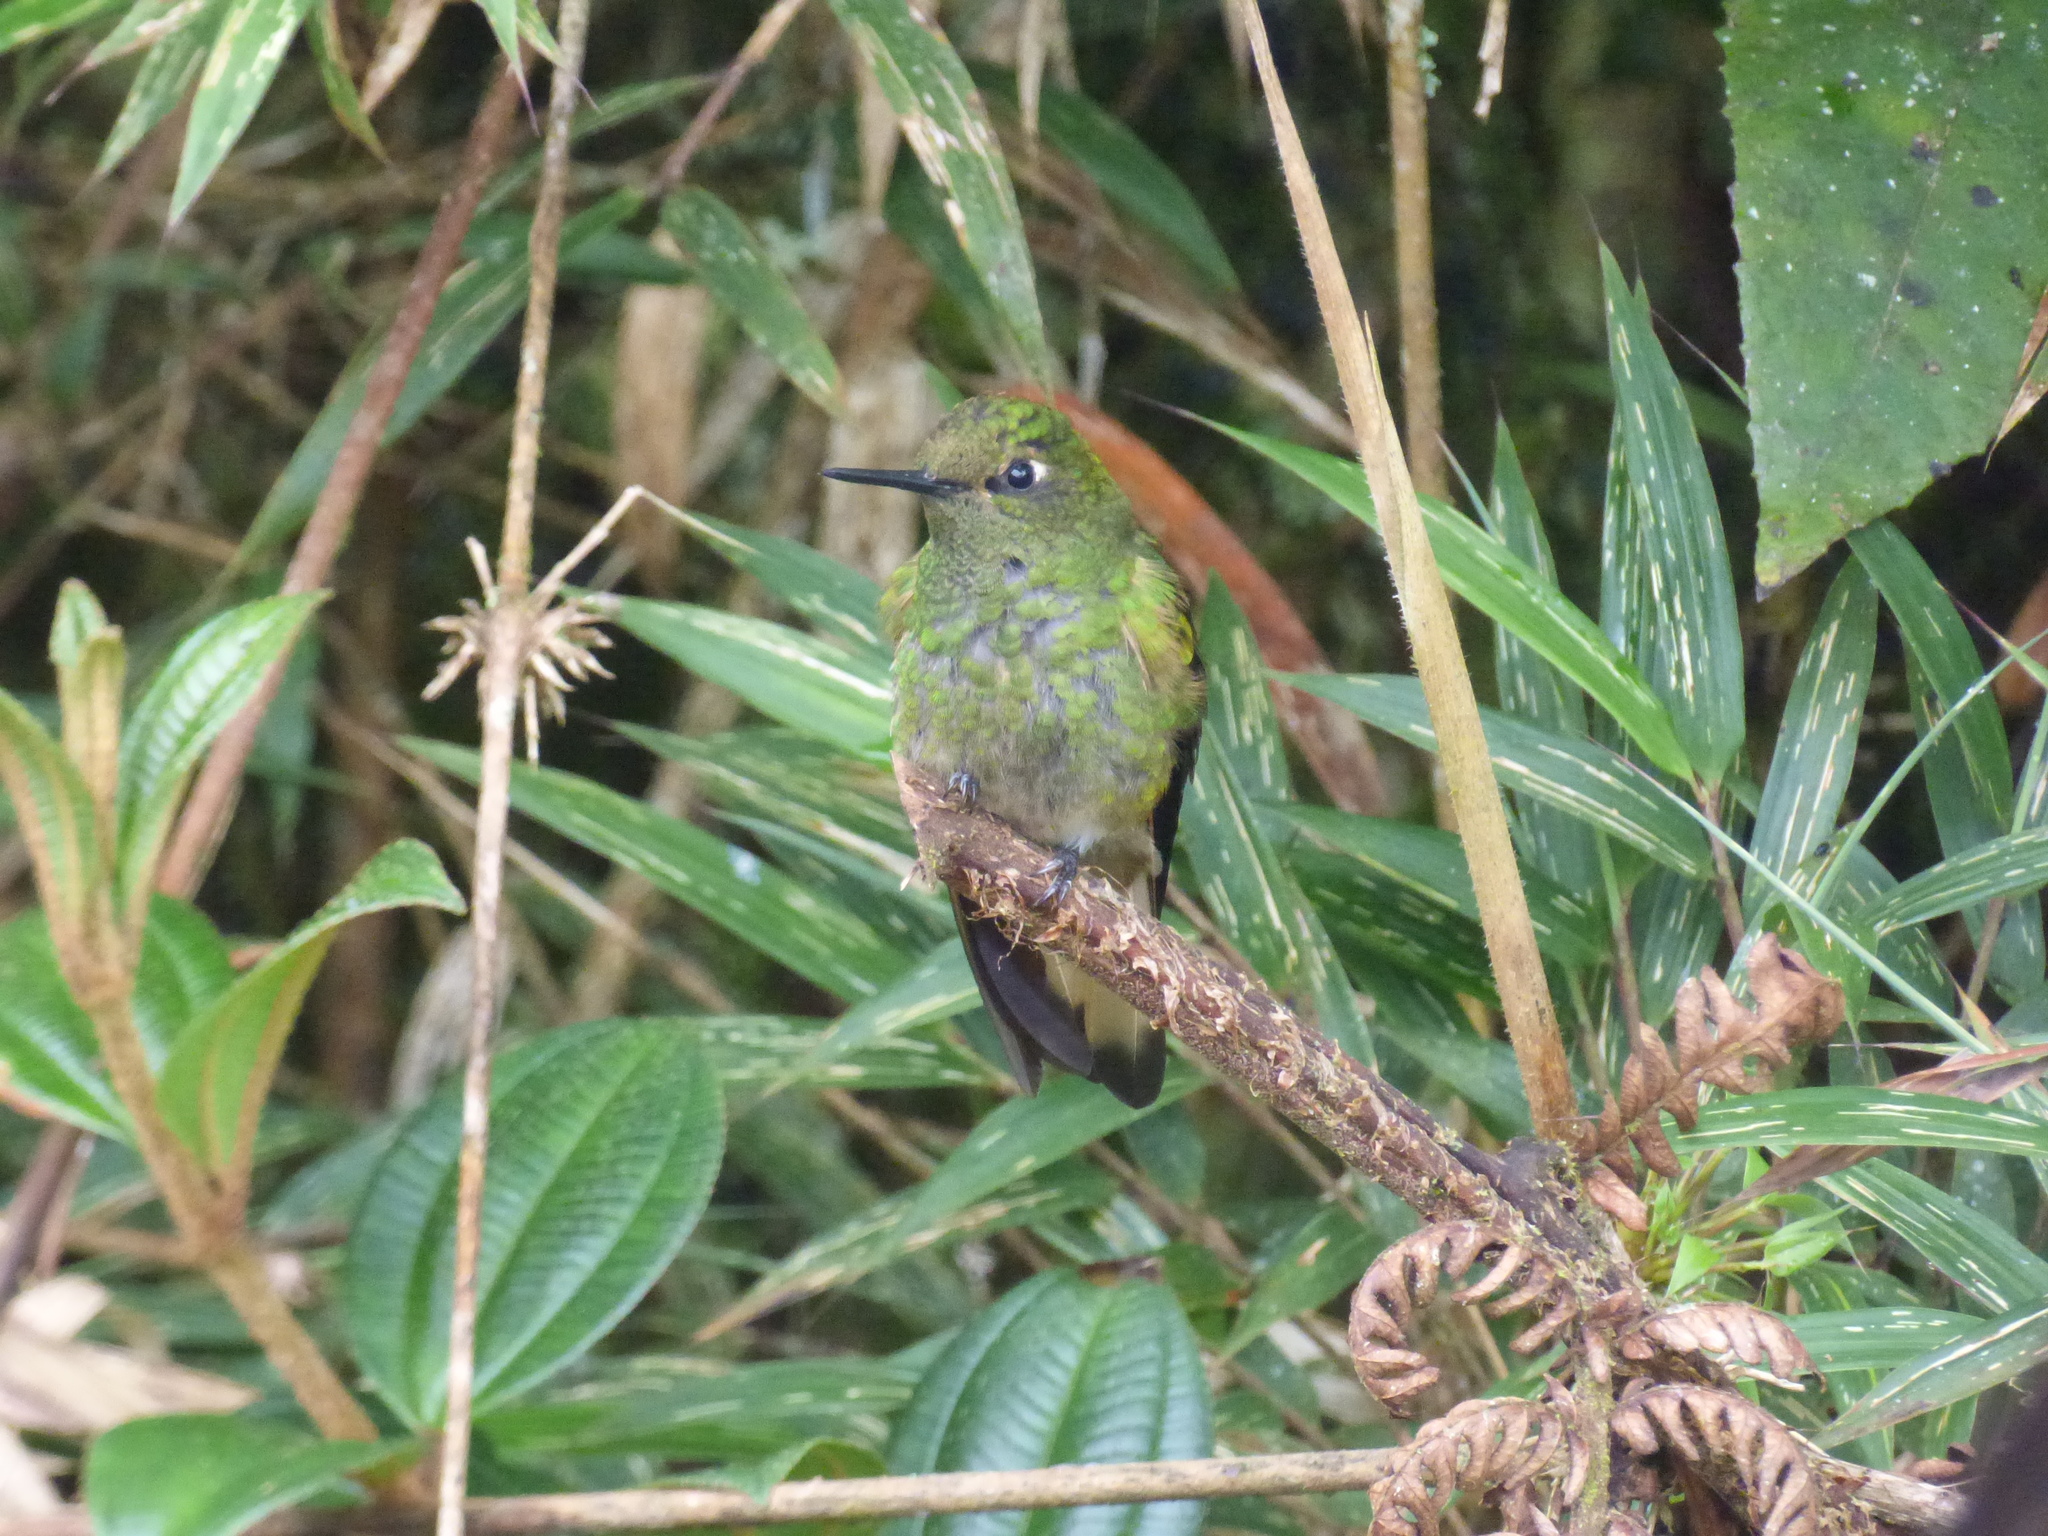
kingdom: Animalia
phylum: Chordata
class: Aves
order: Apodiformes
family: Trochilidae
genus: Boissonneaua
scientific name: Boissonneaua flavescens
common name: Buff-tailed coronet
